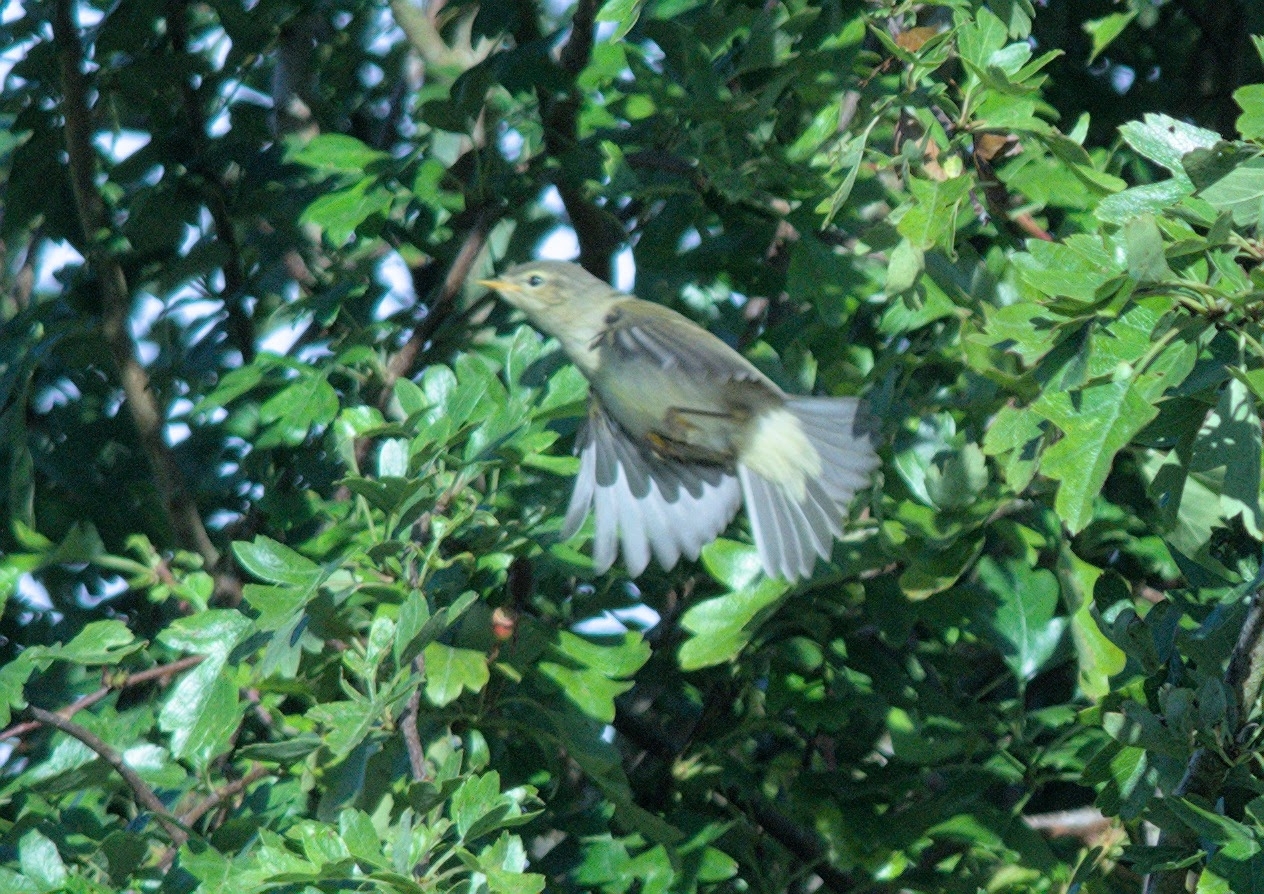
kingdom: Animalia
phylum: Chordata
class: Aves
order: Passeriformes
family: Phylloscopidae
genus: Phylloscopus
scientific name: Phylloscopus trochilus
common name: Willow warbler
